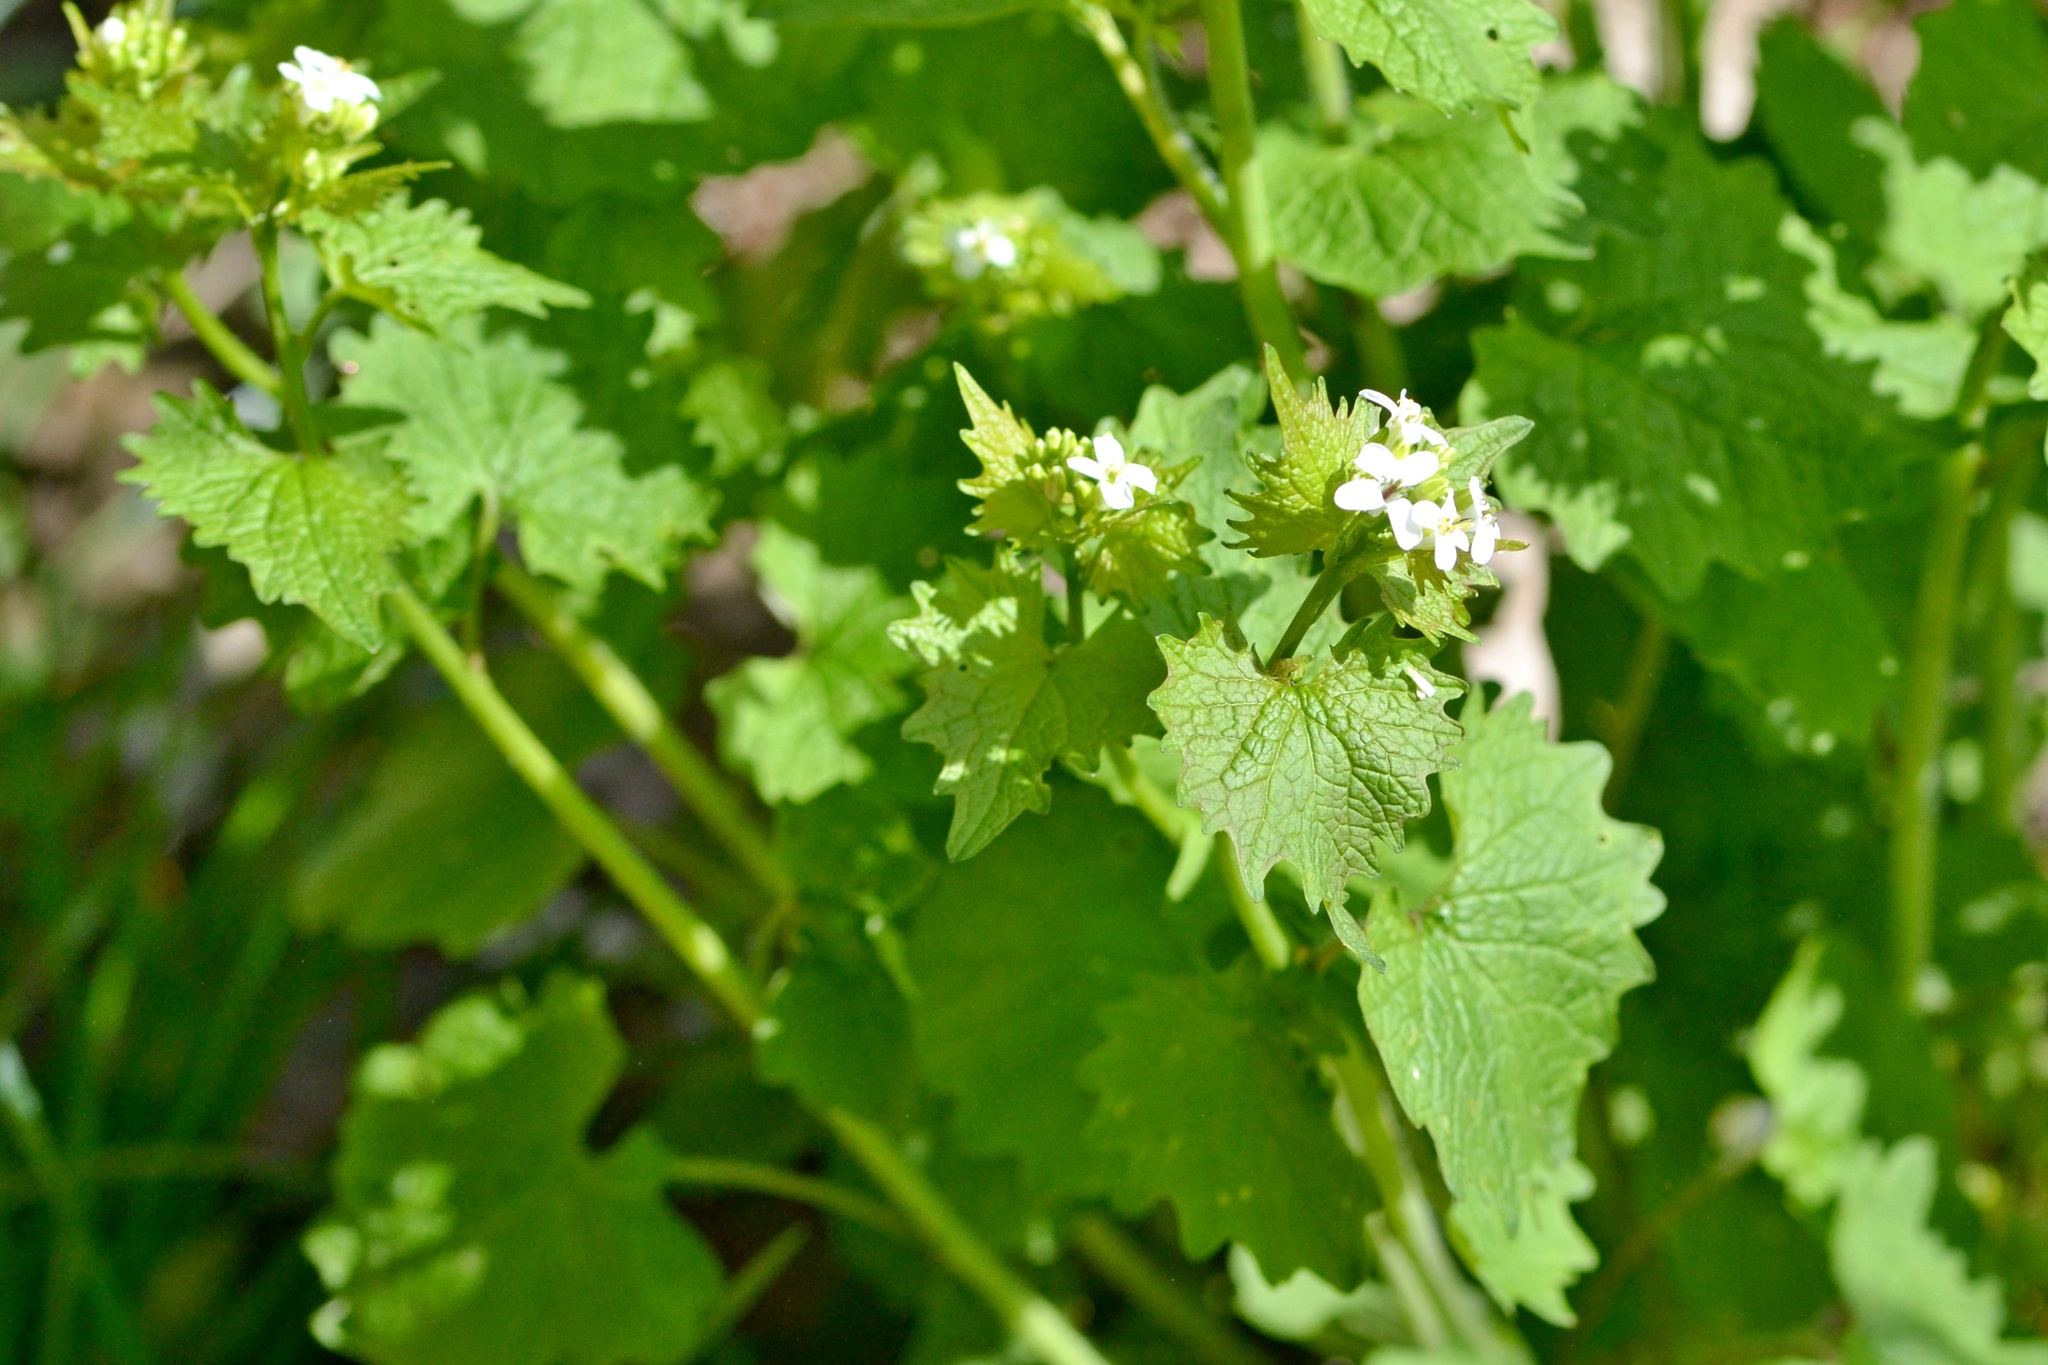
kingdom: Plantae
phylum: Tracheophyta
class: Magnoliopsida
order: Brassicales
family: Brassicaceae
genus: Alliaria
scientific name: Alliaria petiolata
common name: Garlic mustard
